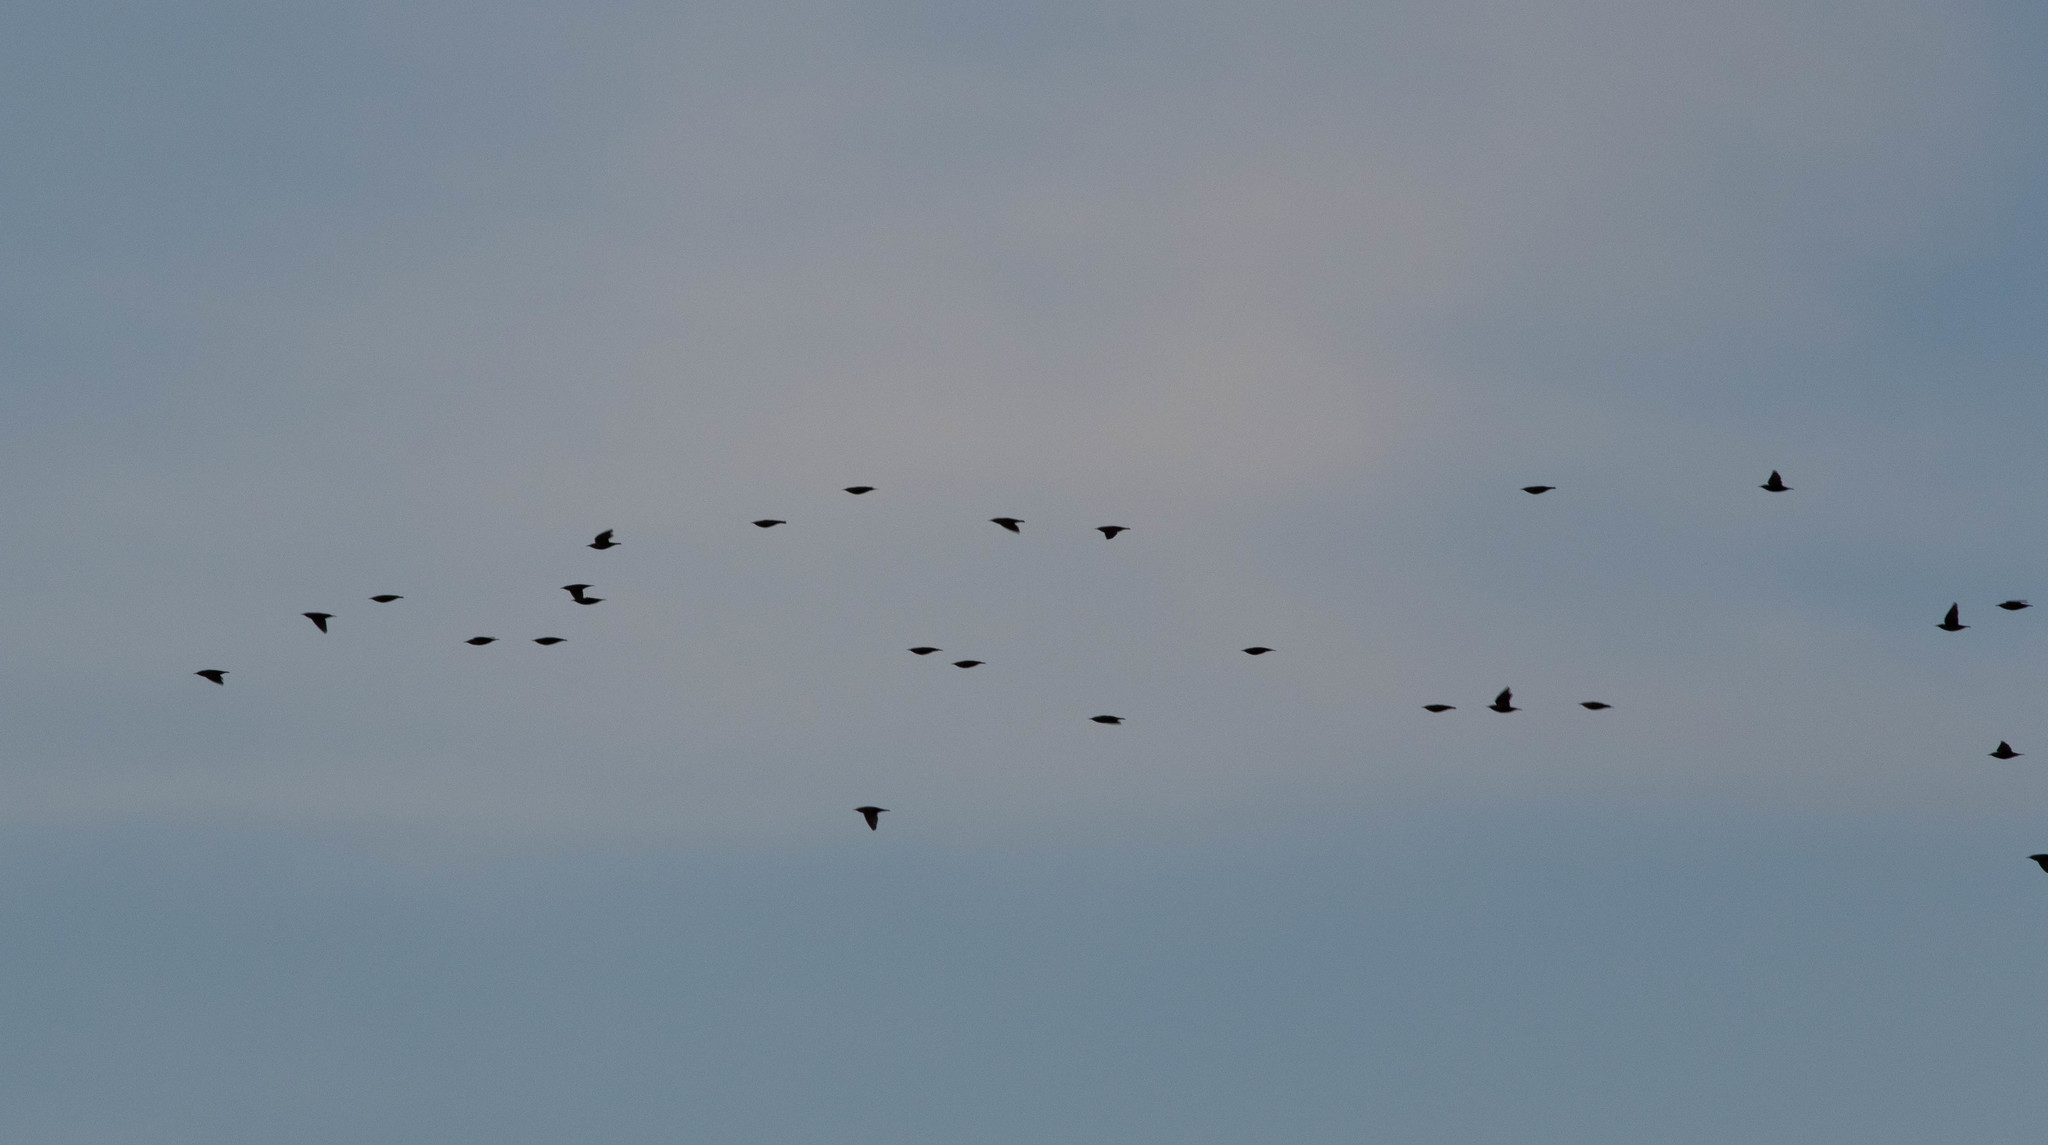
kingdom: Animalia
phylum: Chordata
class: Aves
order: Passeriformes
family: Sturnidae
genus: Sturnus
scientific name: Sturnus vulgaris
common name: Common starling
